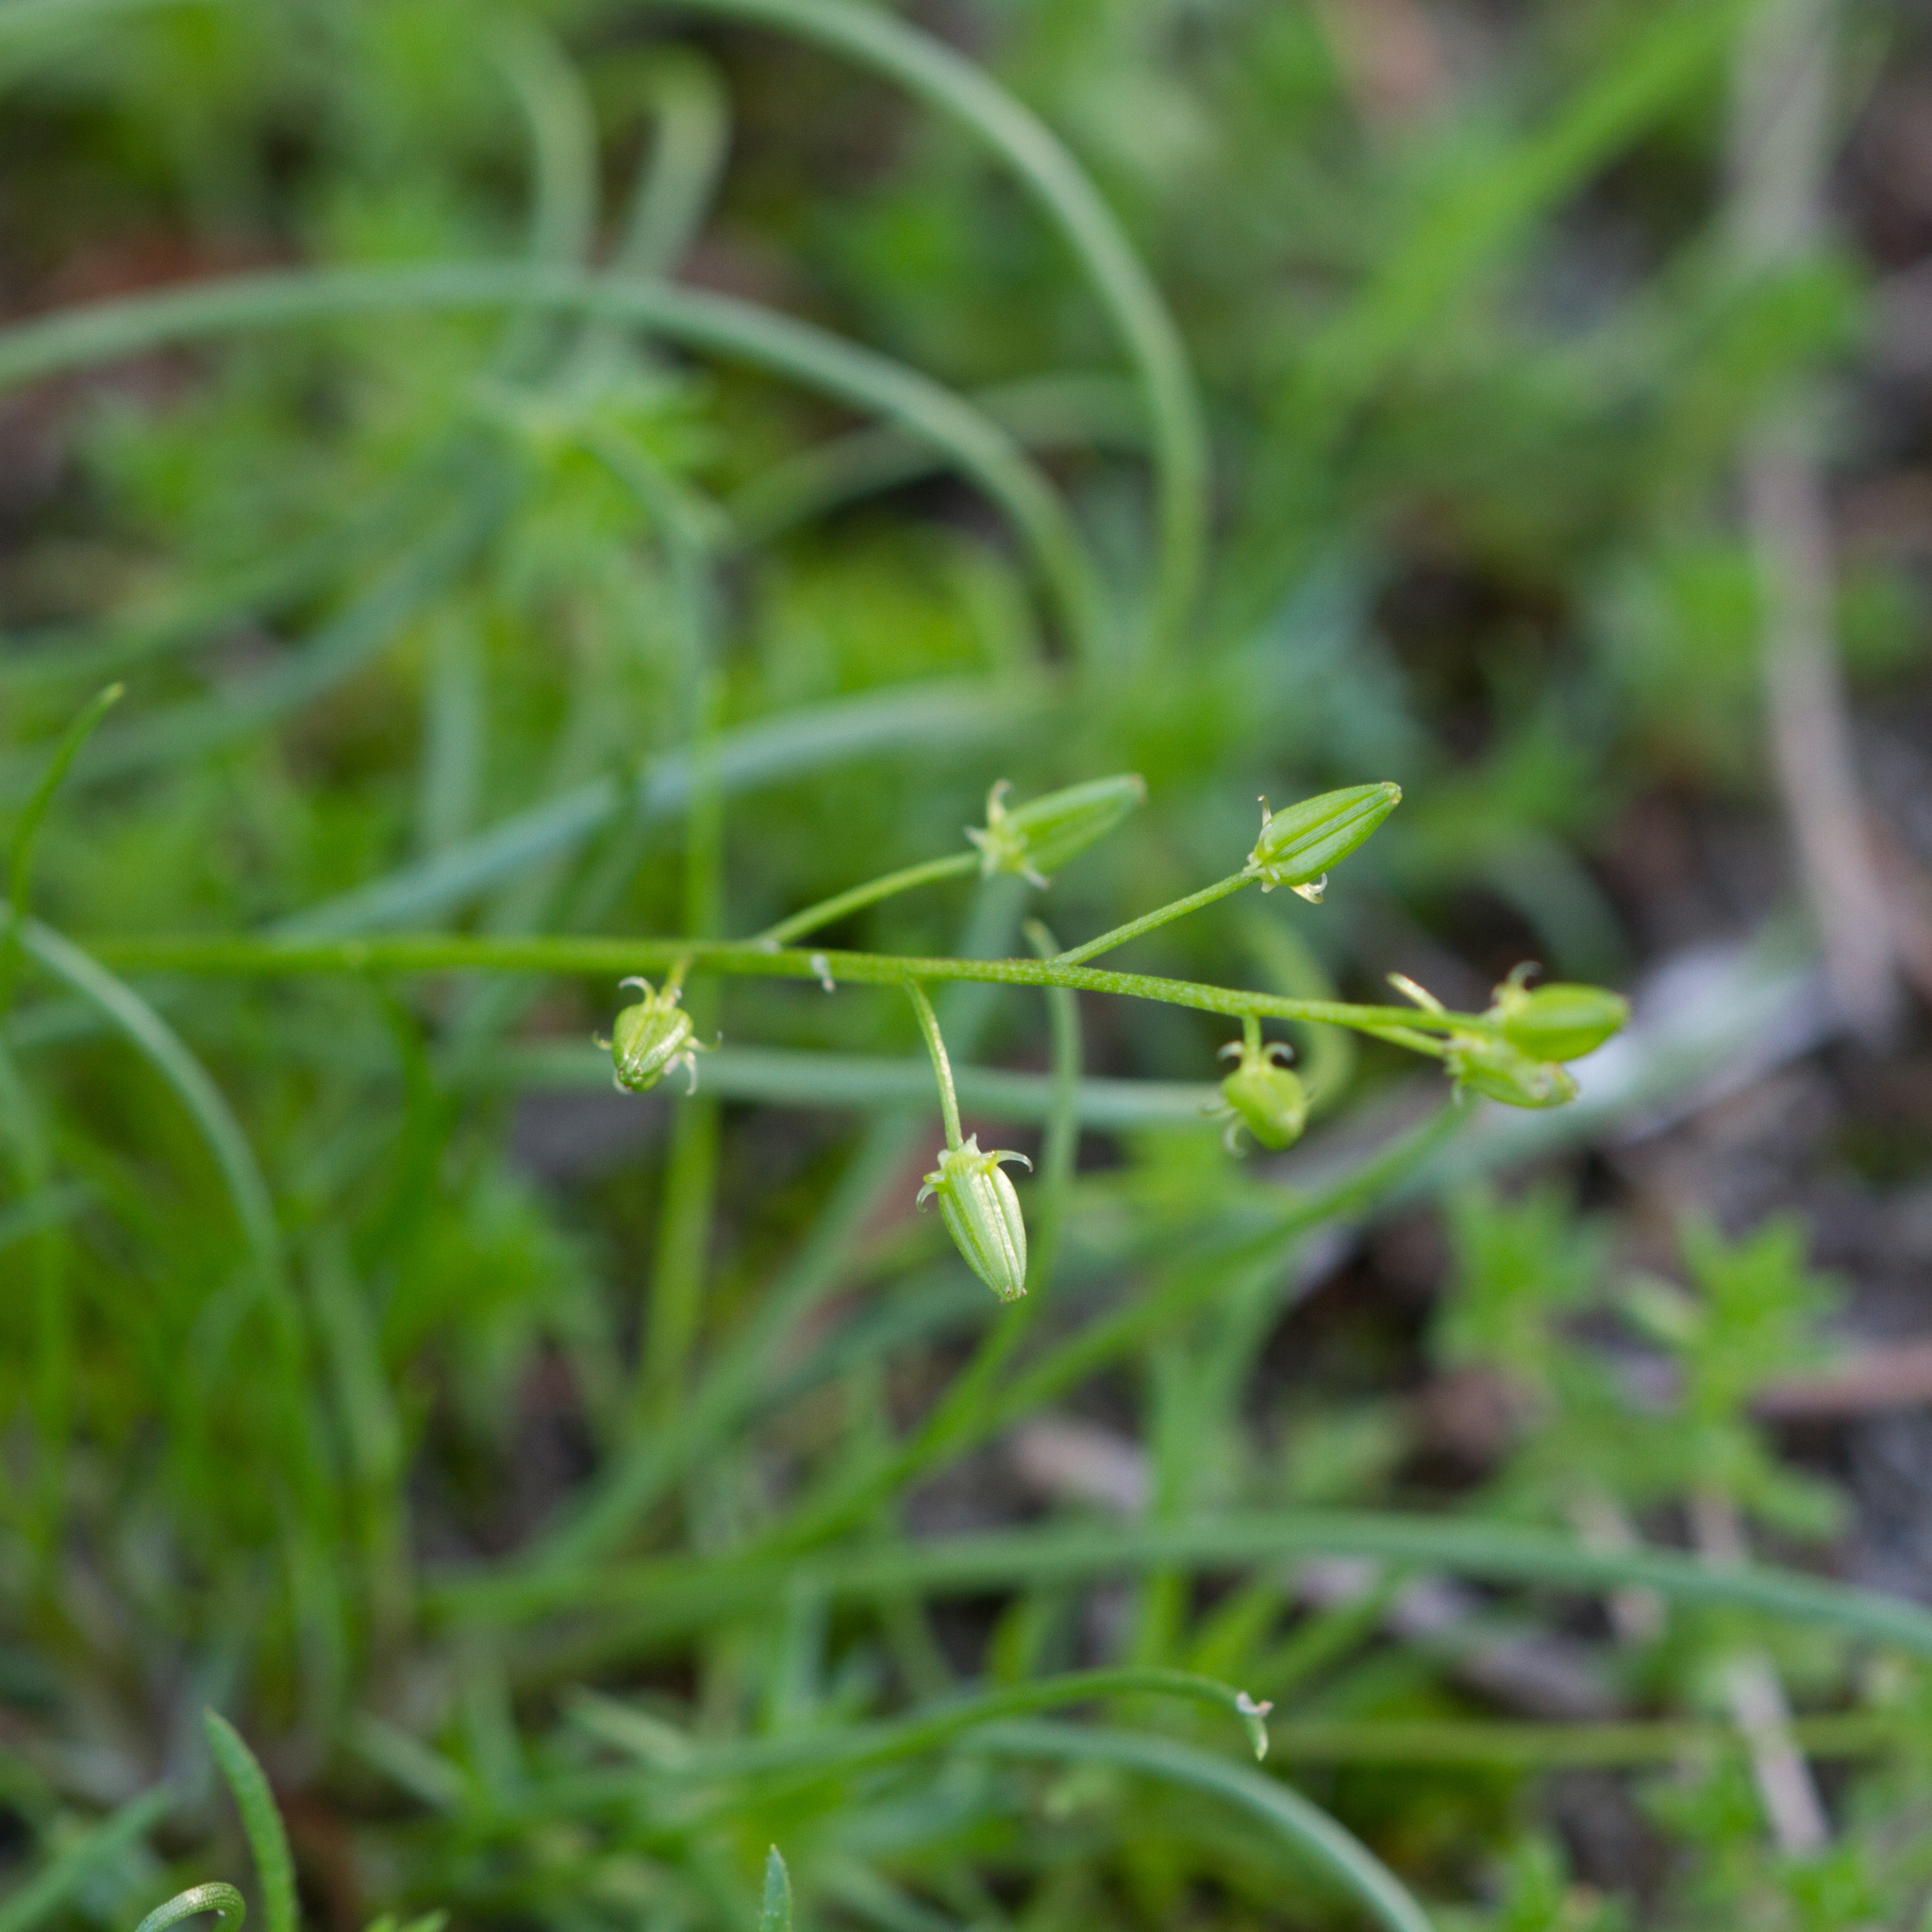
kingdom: Plantae
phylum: Tracheophyta
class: Liliopsida
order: Alismatales
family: Juncaginaceae
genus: Triglochin
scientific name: Triglochin isingiana
